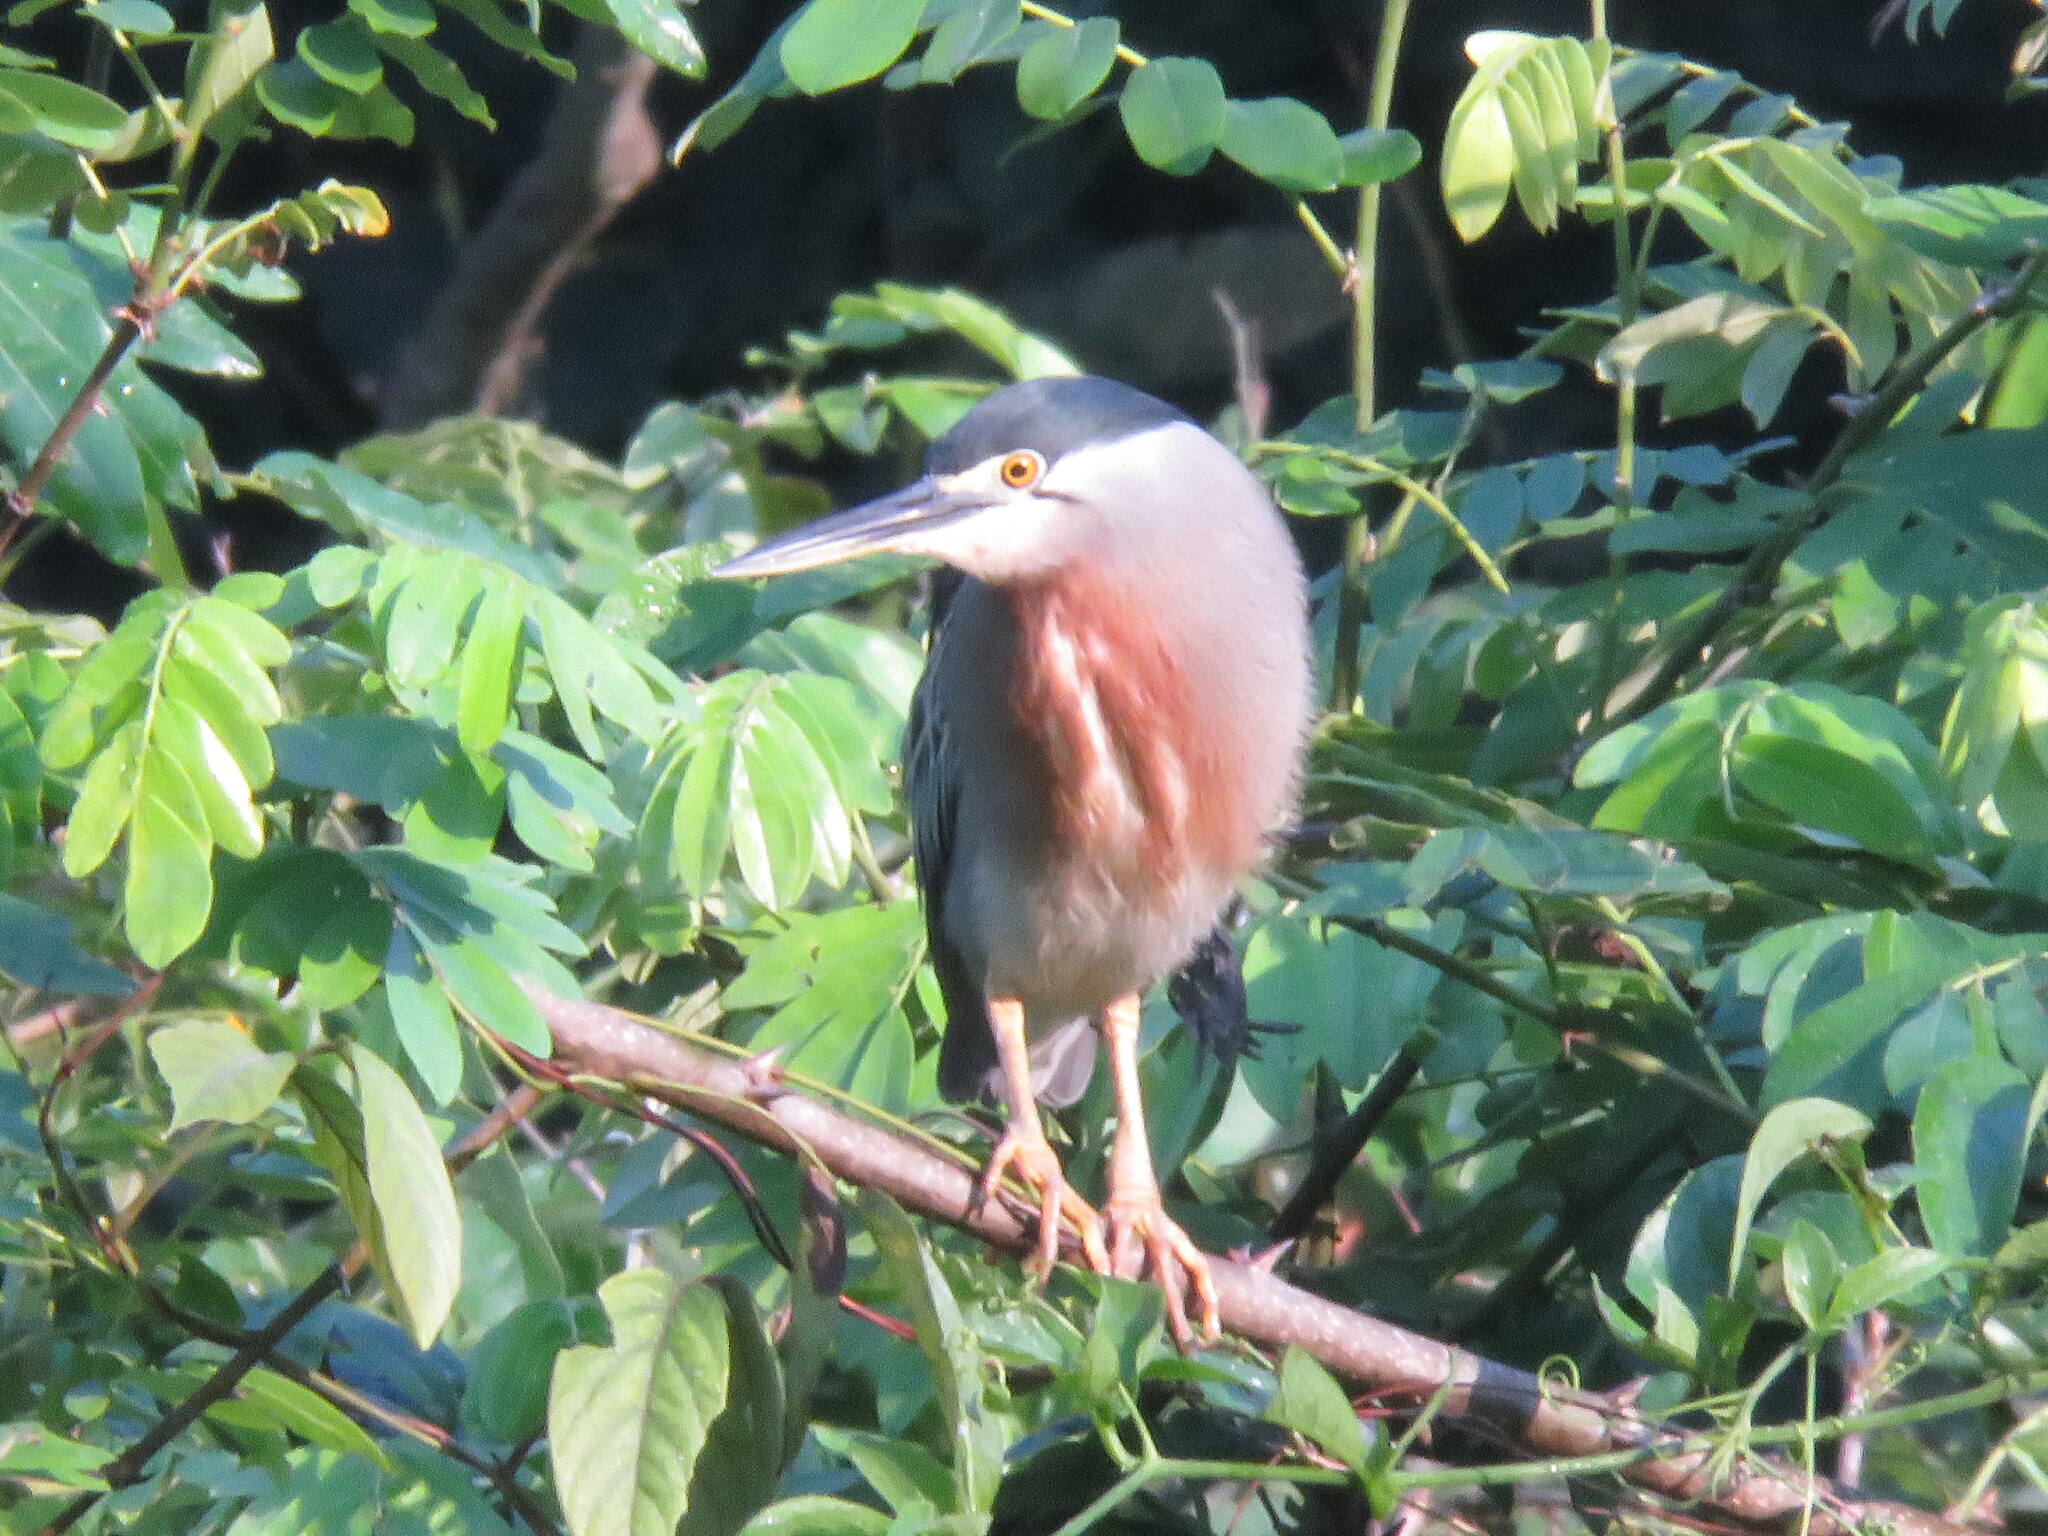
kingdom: Animalia
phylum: Chordata
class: Aves
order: Pelecaniformes
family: Ardeidae
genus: Butorides
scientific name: Butorides striata
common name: Striated heron
